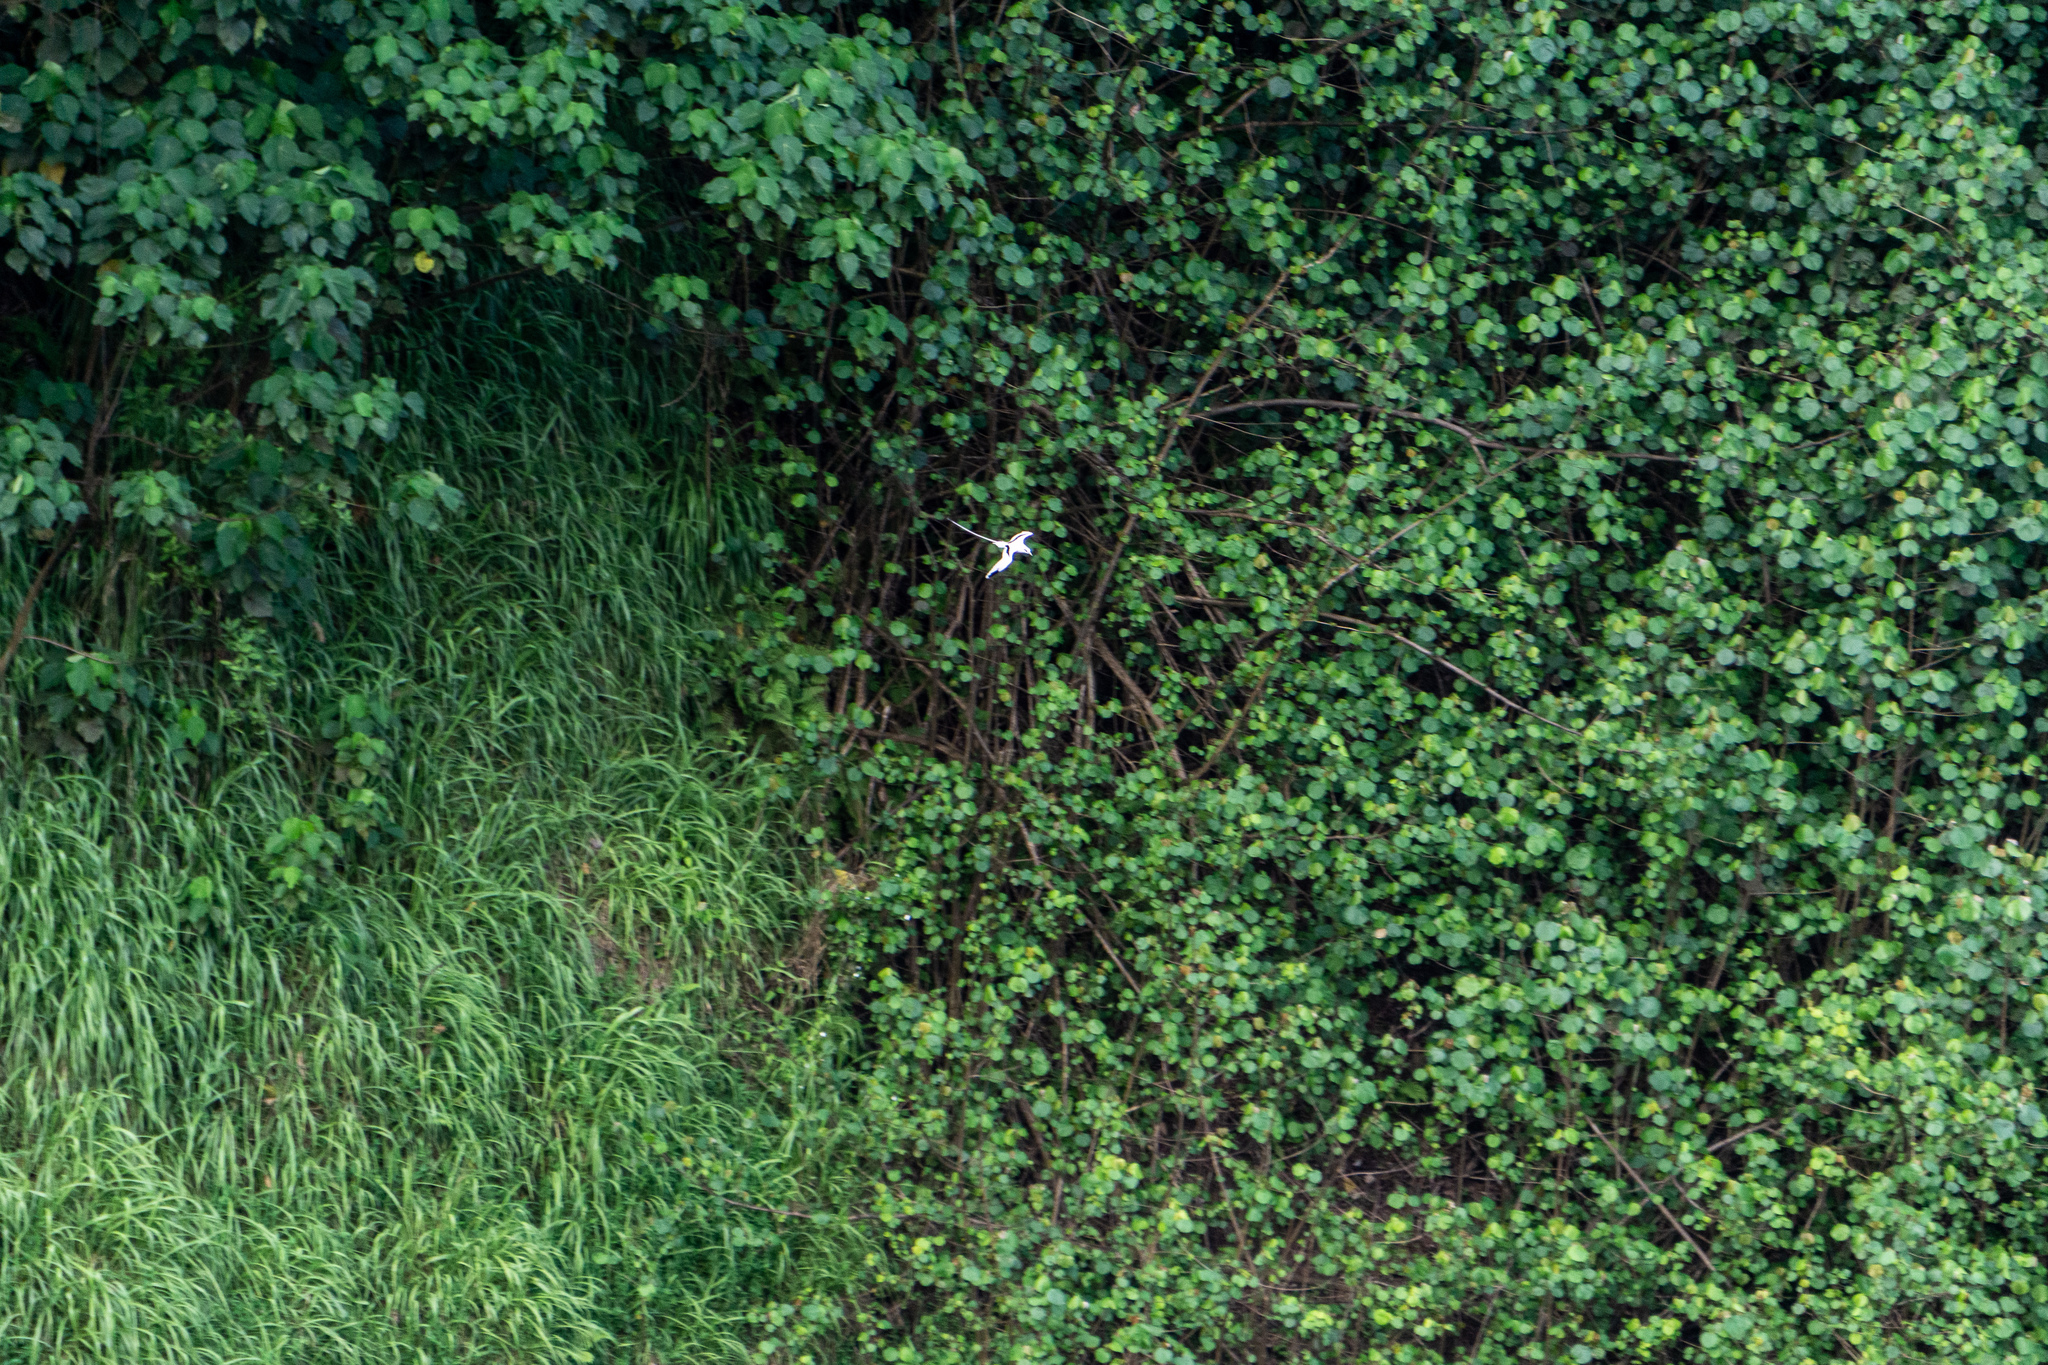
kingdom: Animalia
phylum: Chordata
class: Aves
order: Phaethontiformes
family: Phaethontidae
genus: Phaethon
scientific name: Phaethon lepturus
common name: White-tailed tropicbird
